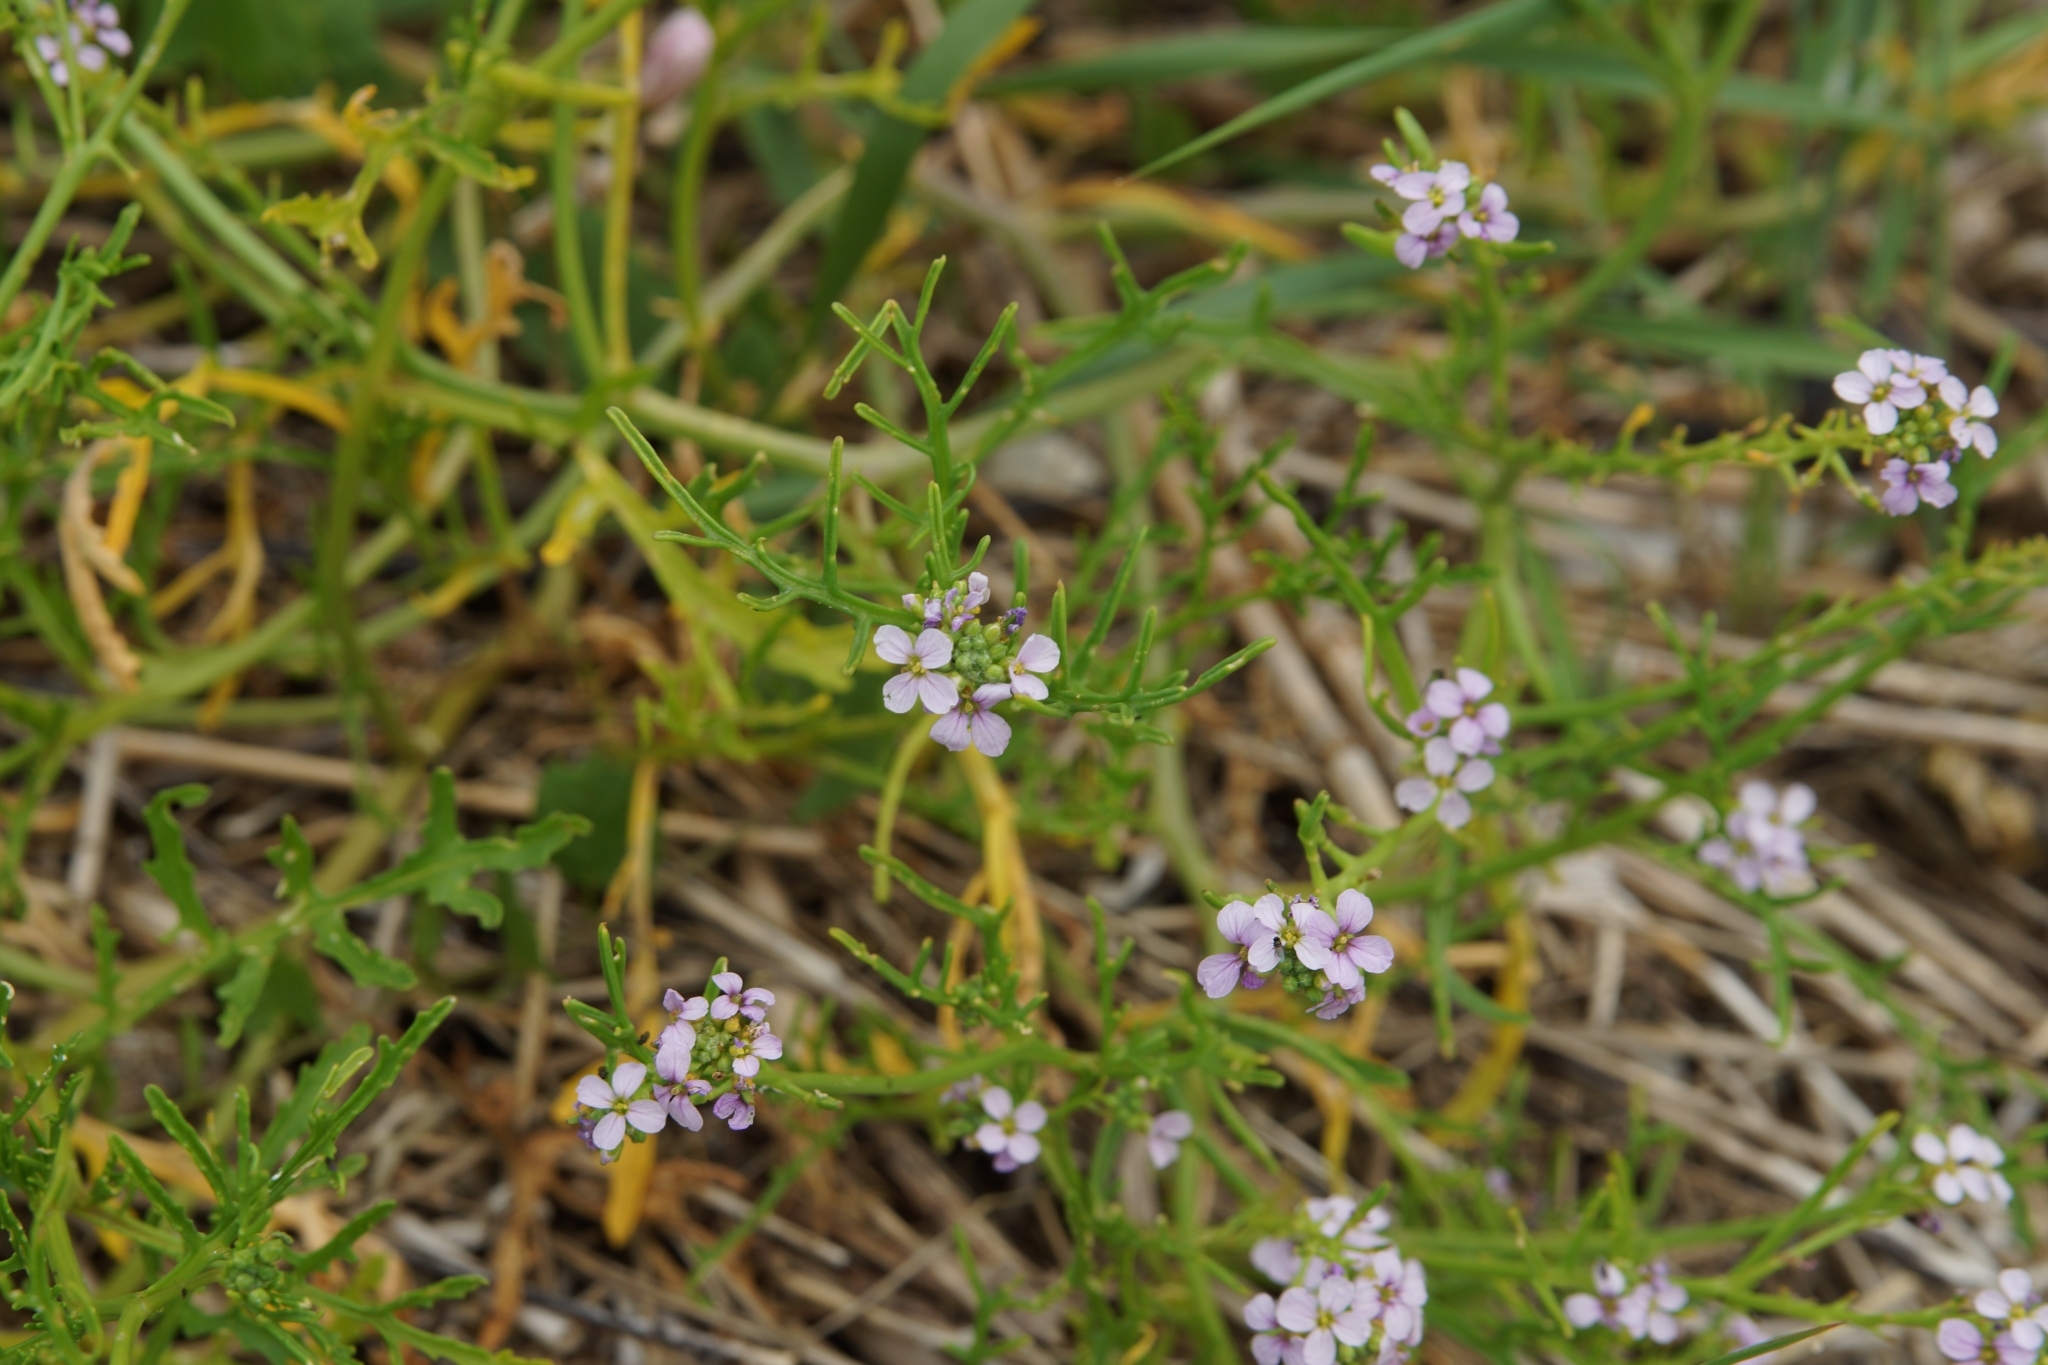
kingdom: Plantae
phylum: Tracheophyta
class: Magnoliopsida
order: Brassicales
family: Brassicaceae
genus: Cakile
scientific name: Cakile maritima
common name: Sea rocket
